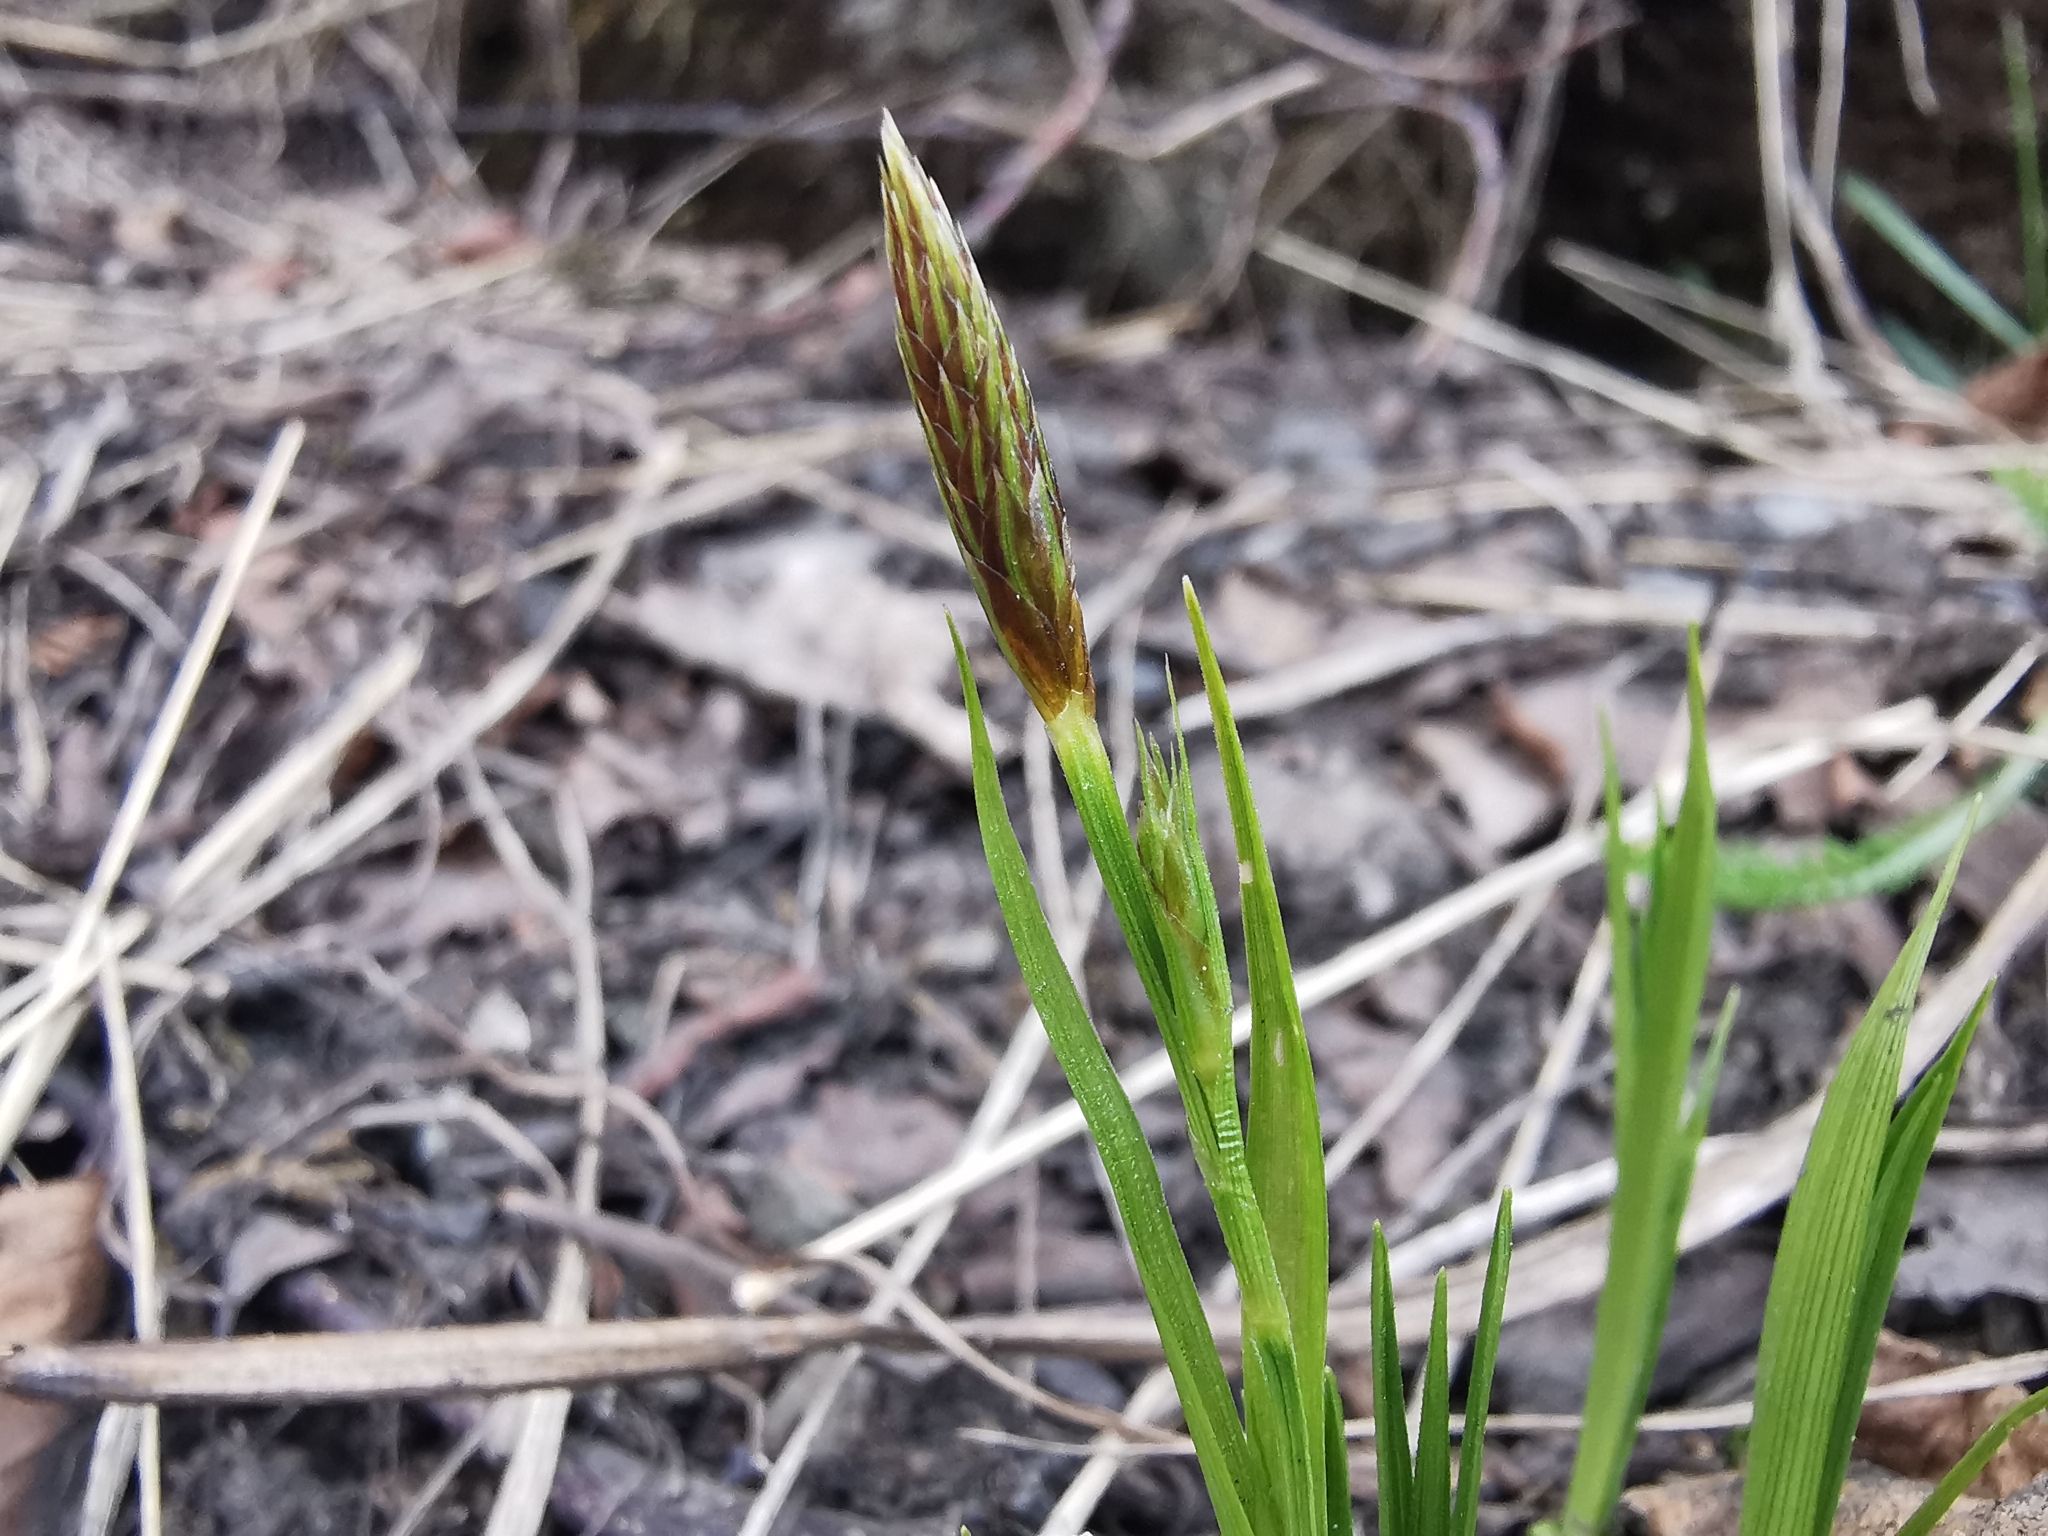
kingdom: Plantae
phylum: Tracheophyta
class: Liliopsida
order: Poales
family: Cyperaceae
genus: Carex
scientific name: Carex longerostrata
